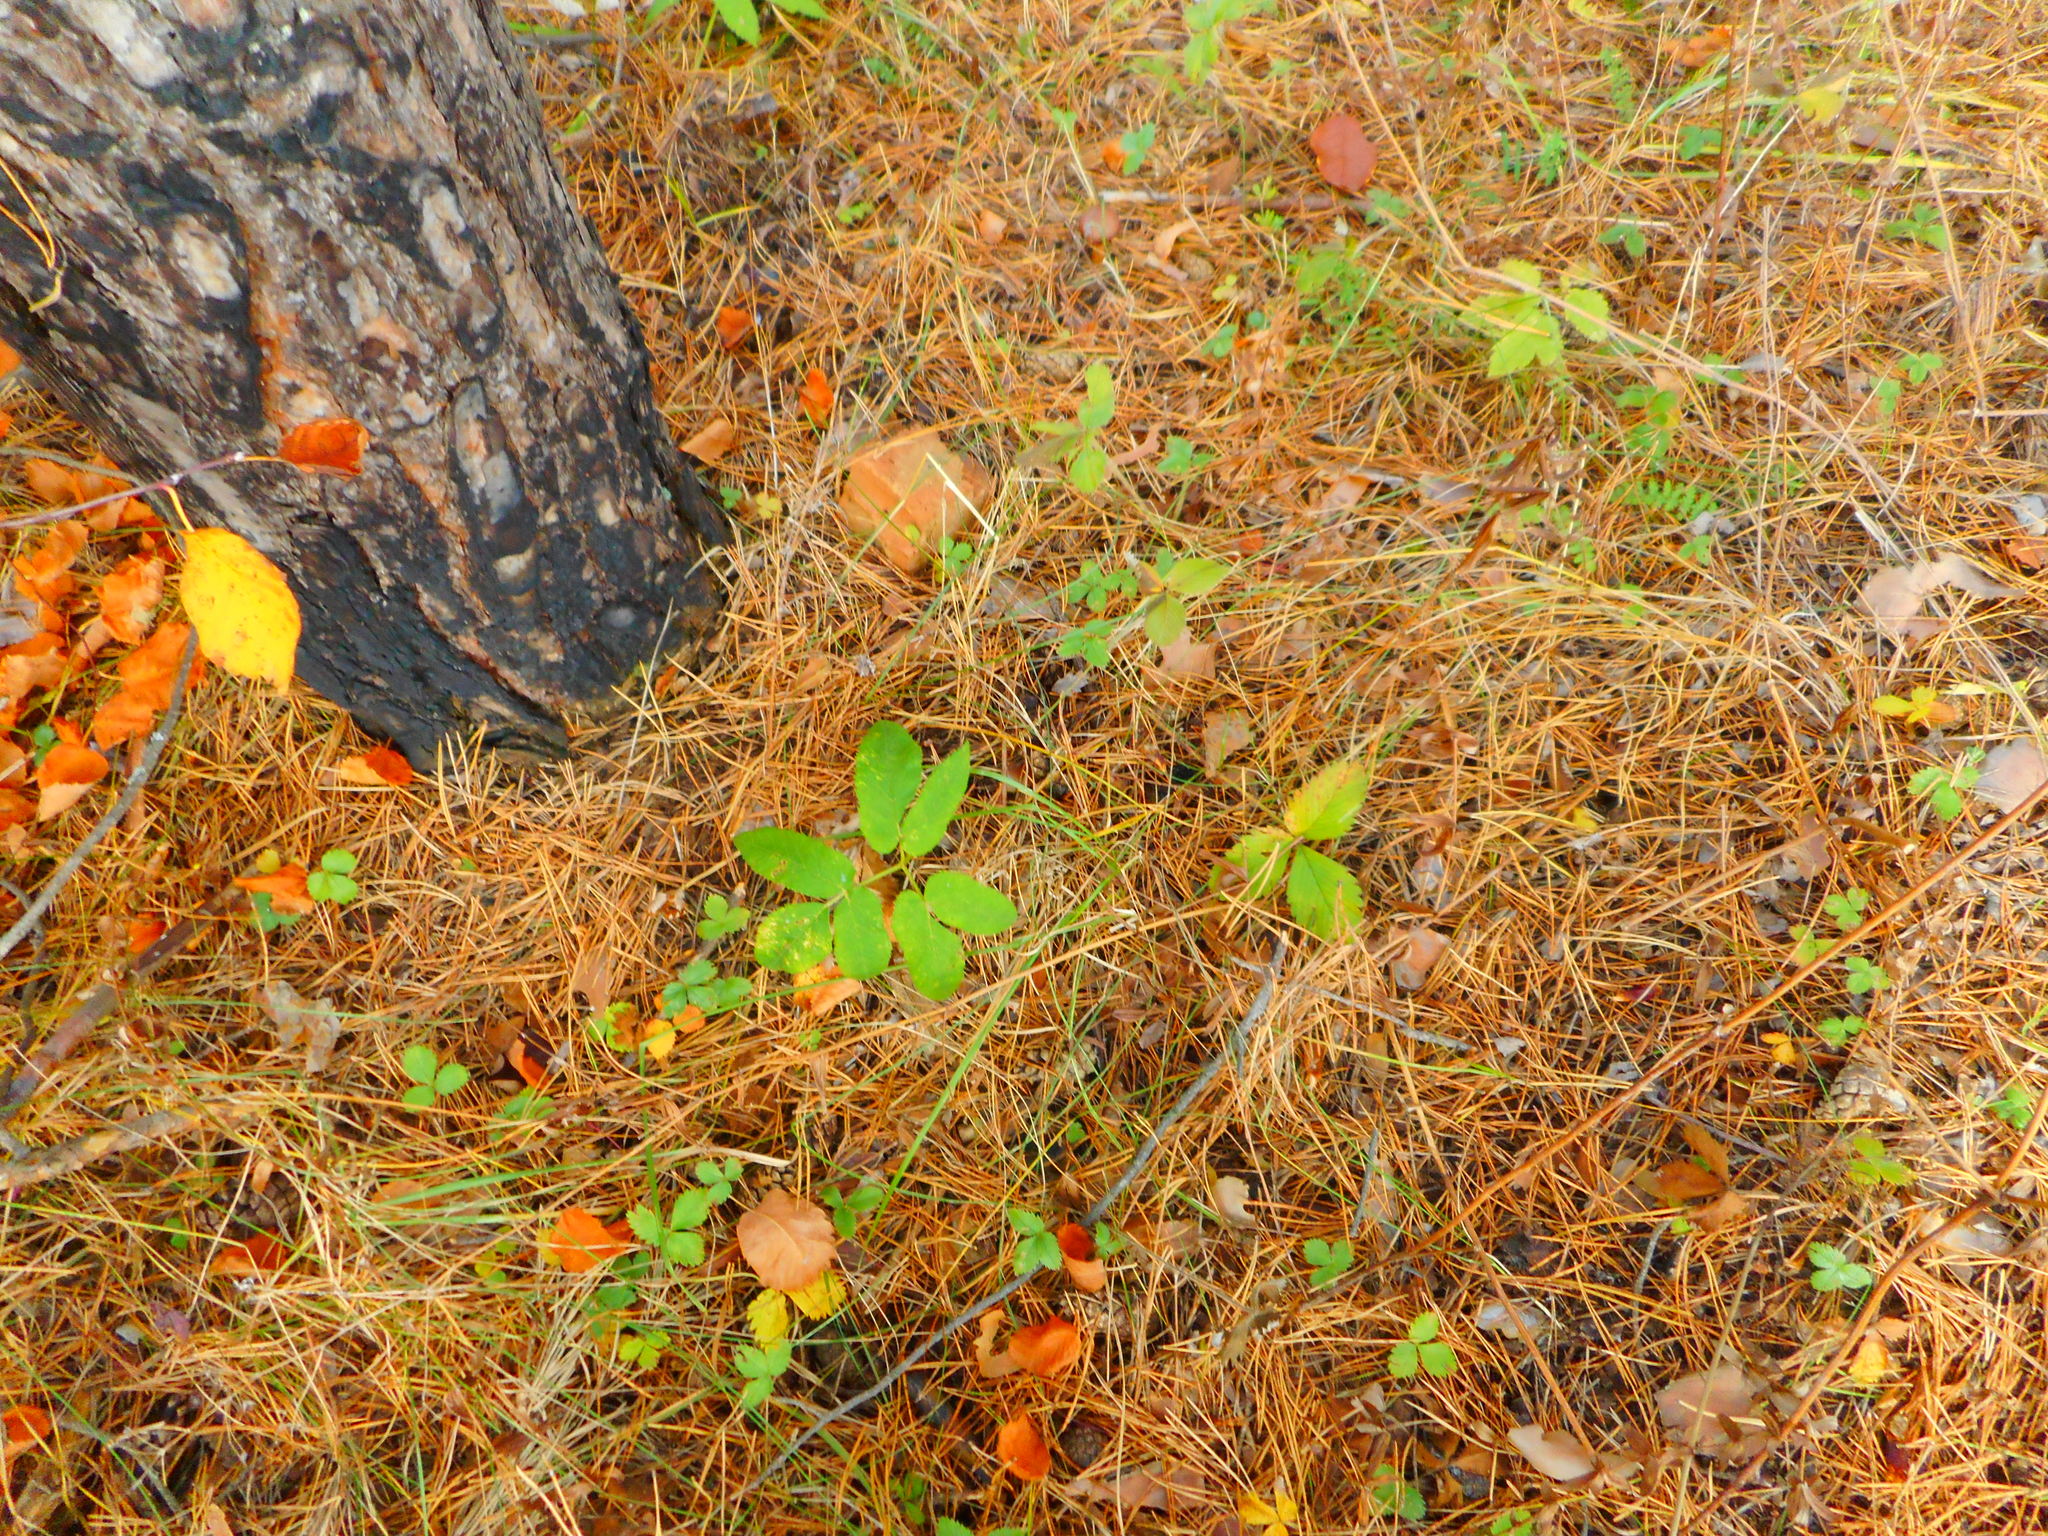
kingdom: Plantae
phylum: Tracheophyta
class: Magnoliopsida
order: Apiales
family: Apiaceae
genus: Aegopodium
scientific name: Aegopodium podagraria
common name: Ground-elder
